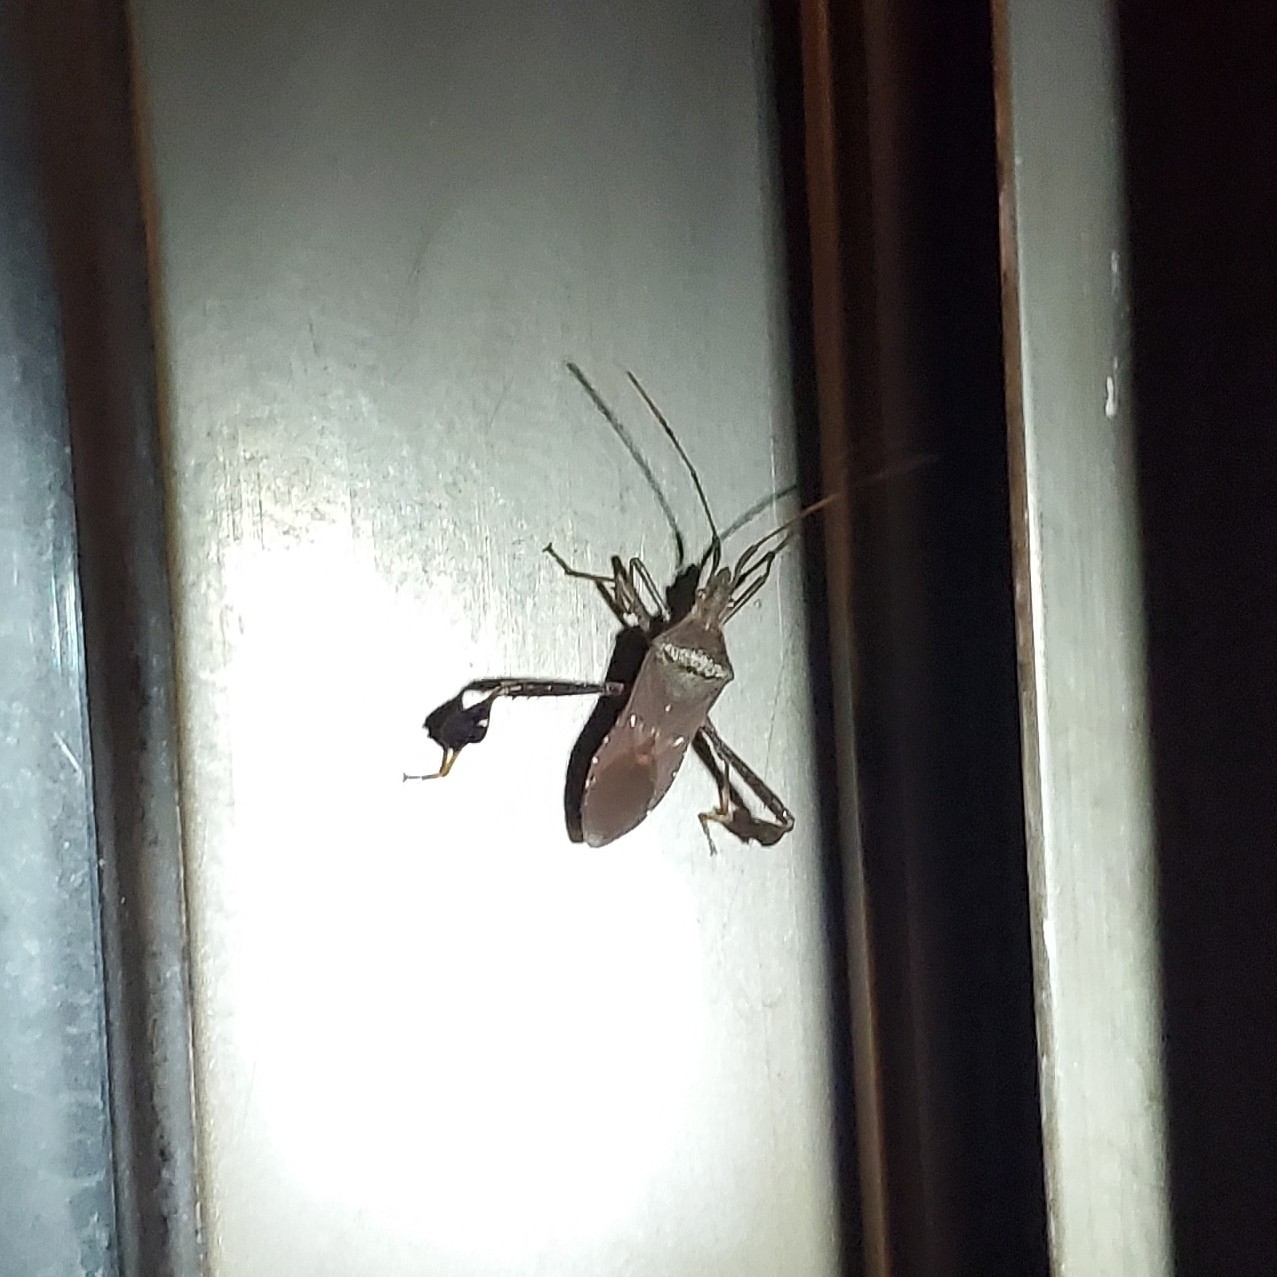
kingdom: Animalia
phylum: Arthropoda
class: Insecta
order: Hemiptera
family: Coreidae
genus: Leptoglossus
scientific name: Leptoglossus oppositus
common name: Northern leaf-footed bug
